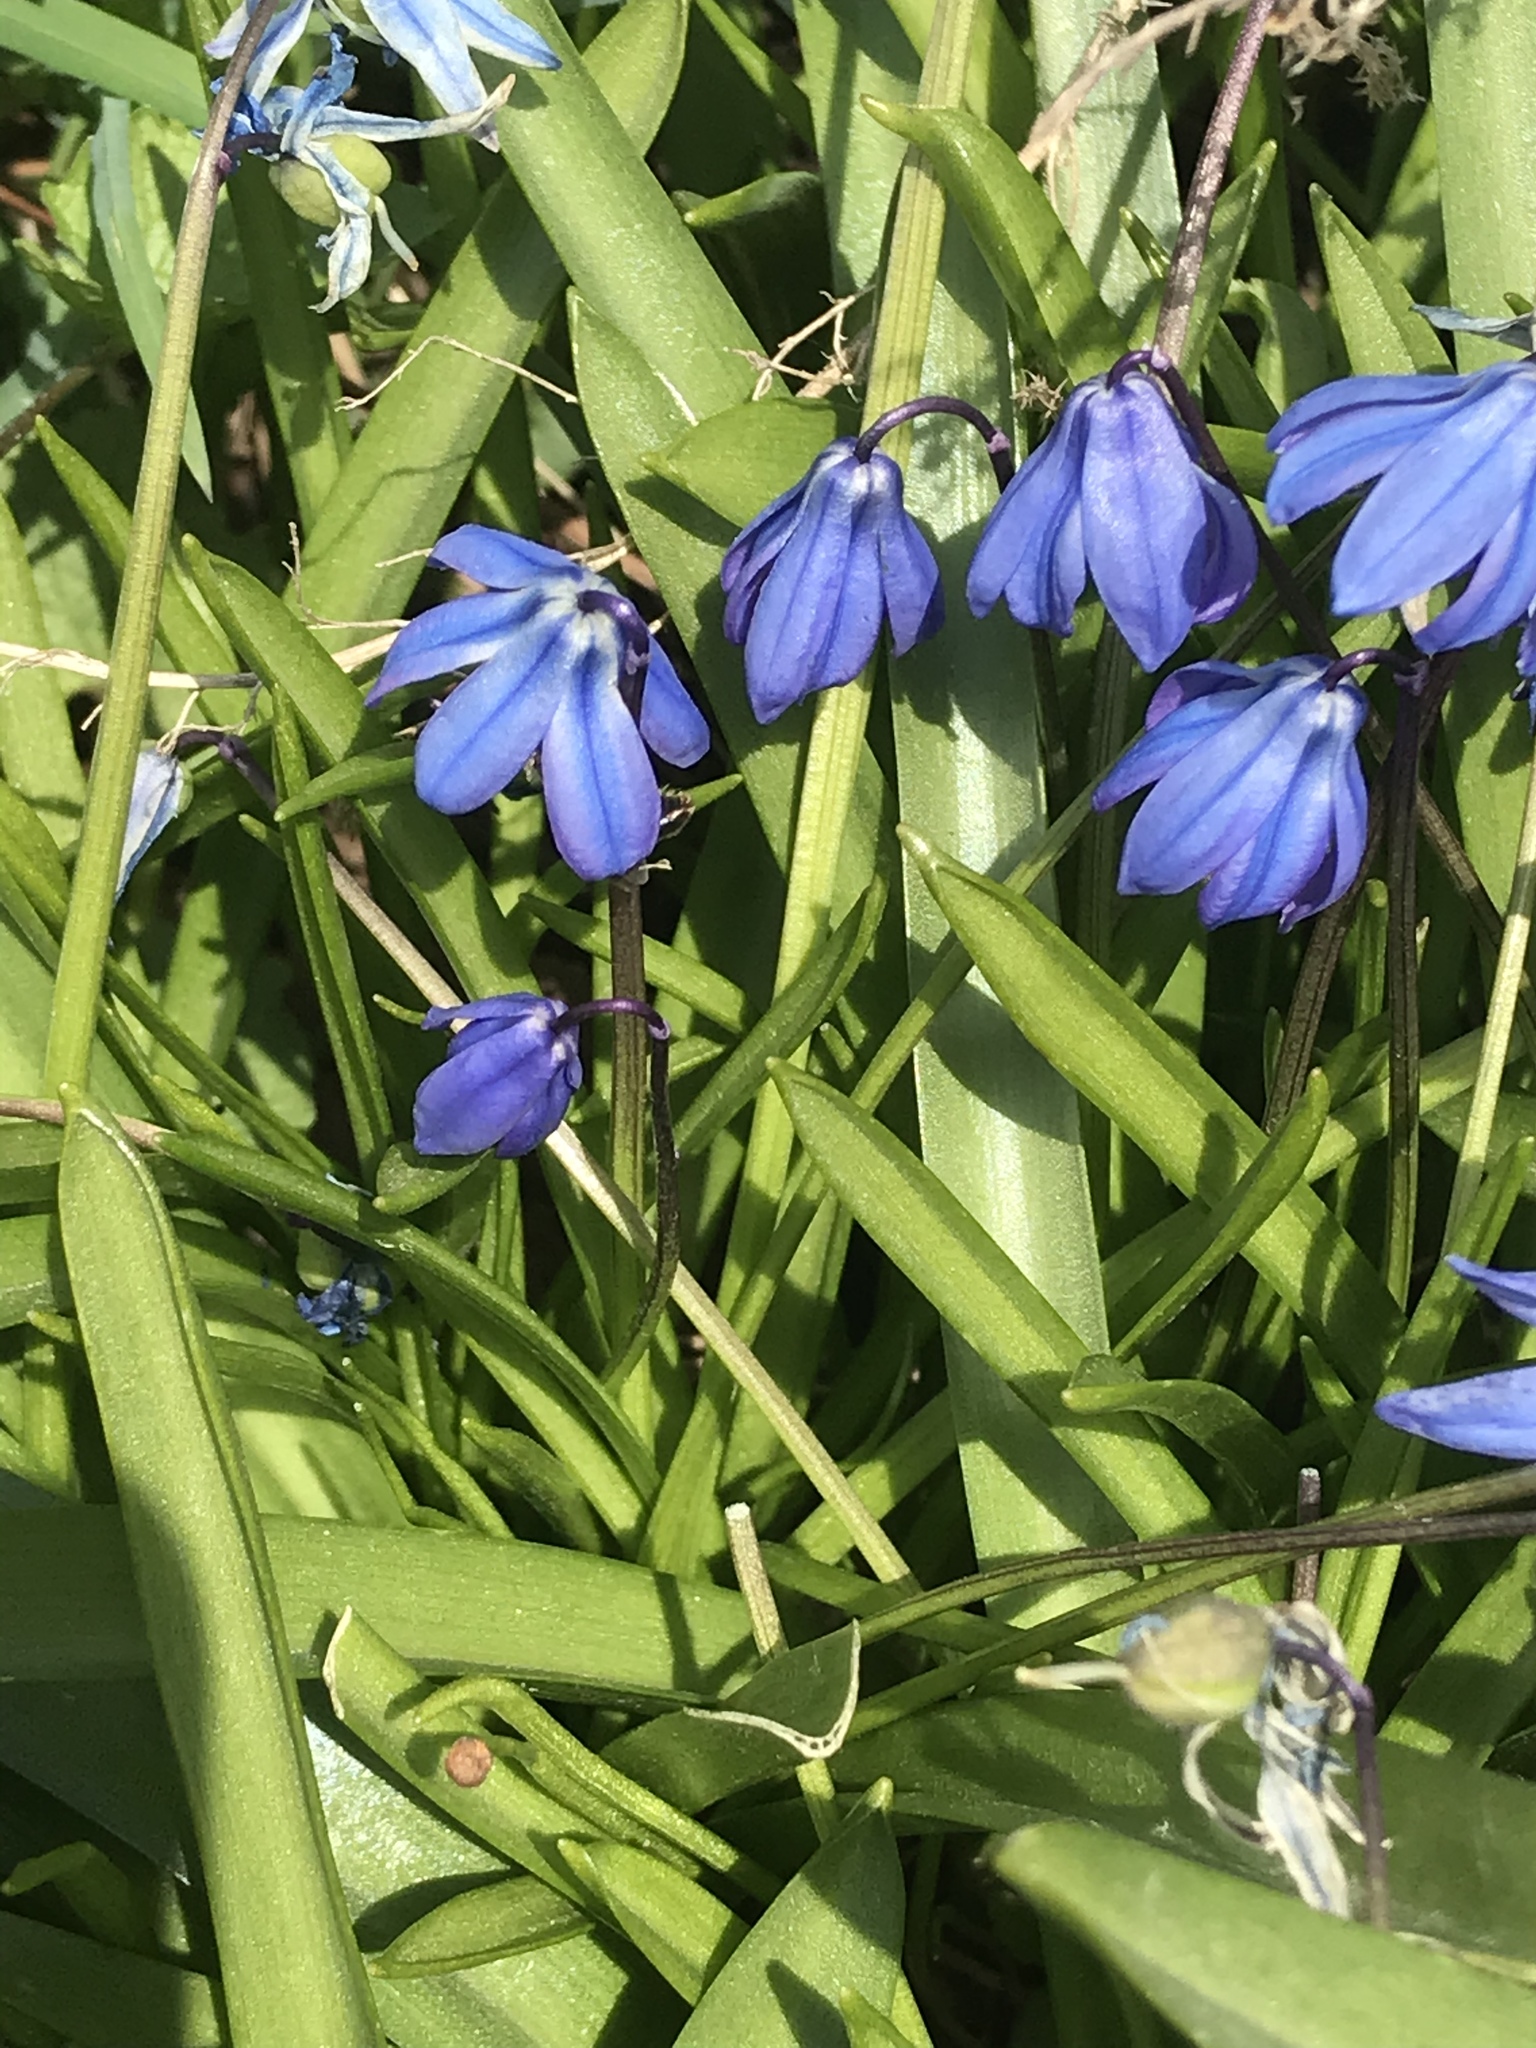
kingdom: Plantae
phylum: Tracheophyta
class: Liliopsida
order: Asparagales
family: Asparagaceae
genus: Scilla
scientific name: Scilla siberica
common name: Siberian squill
